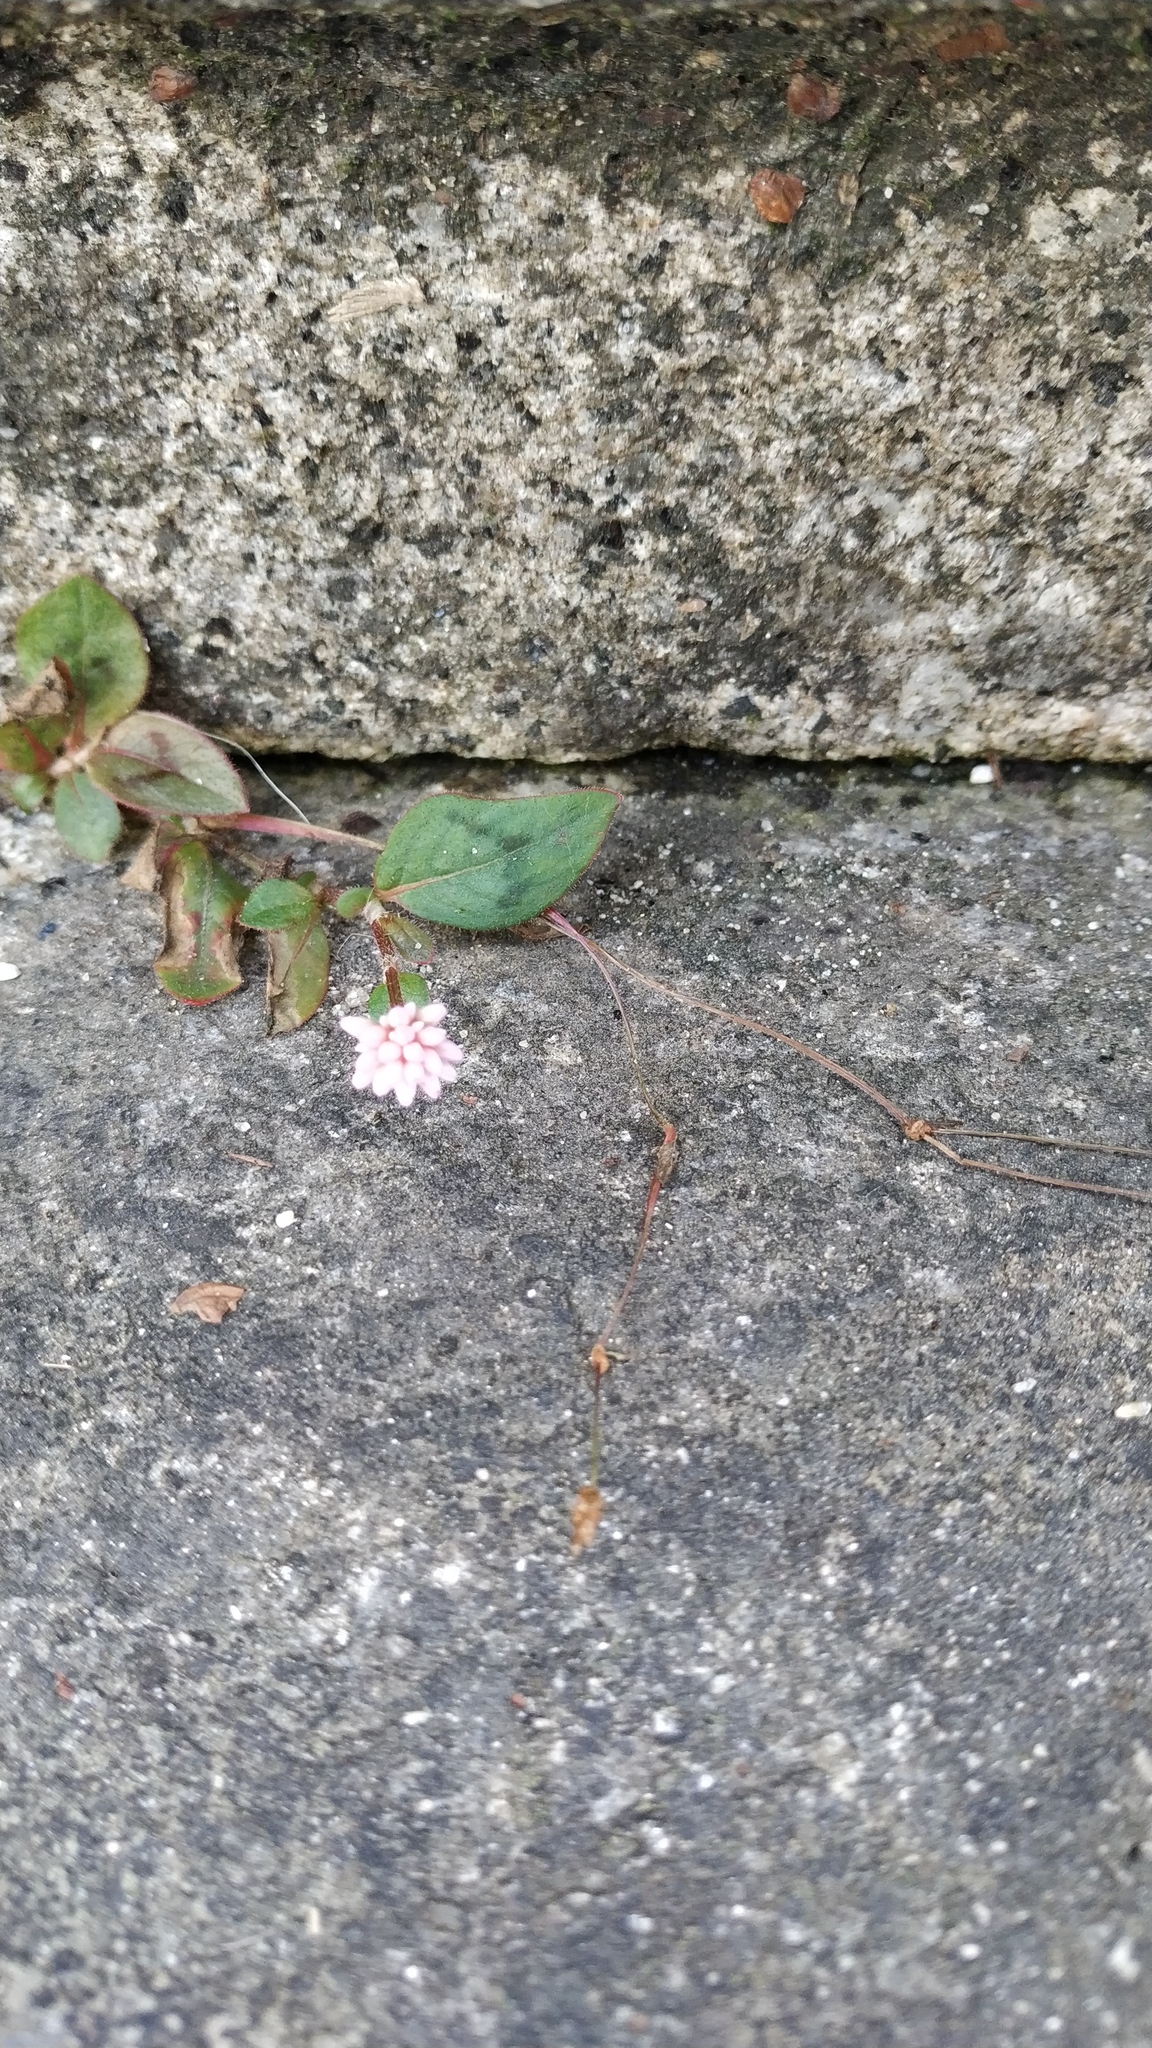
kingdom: Plantae
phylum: Tracheophyta
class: Magnoliopsida
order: Caryophyllales
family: Polygonaceae
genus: Persicaria
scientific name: Persicaria capitata
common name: Pinkhead smartweed
